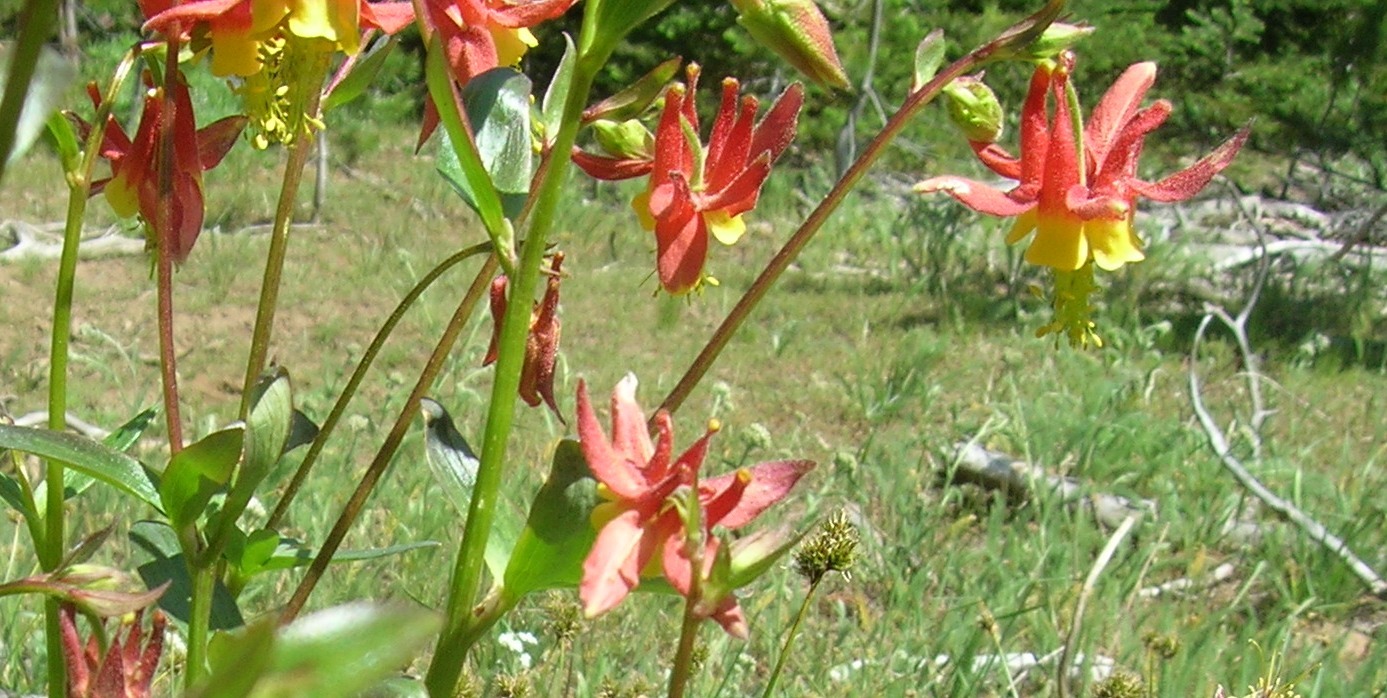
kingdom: Plantae
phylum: Tracheophyta
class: Magnoliopsida
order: Ranunculales
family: Ranunculaceae
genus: Aquilegia
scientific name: Aquilegia formosa
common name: Sitka columbine
